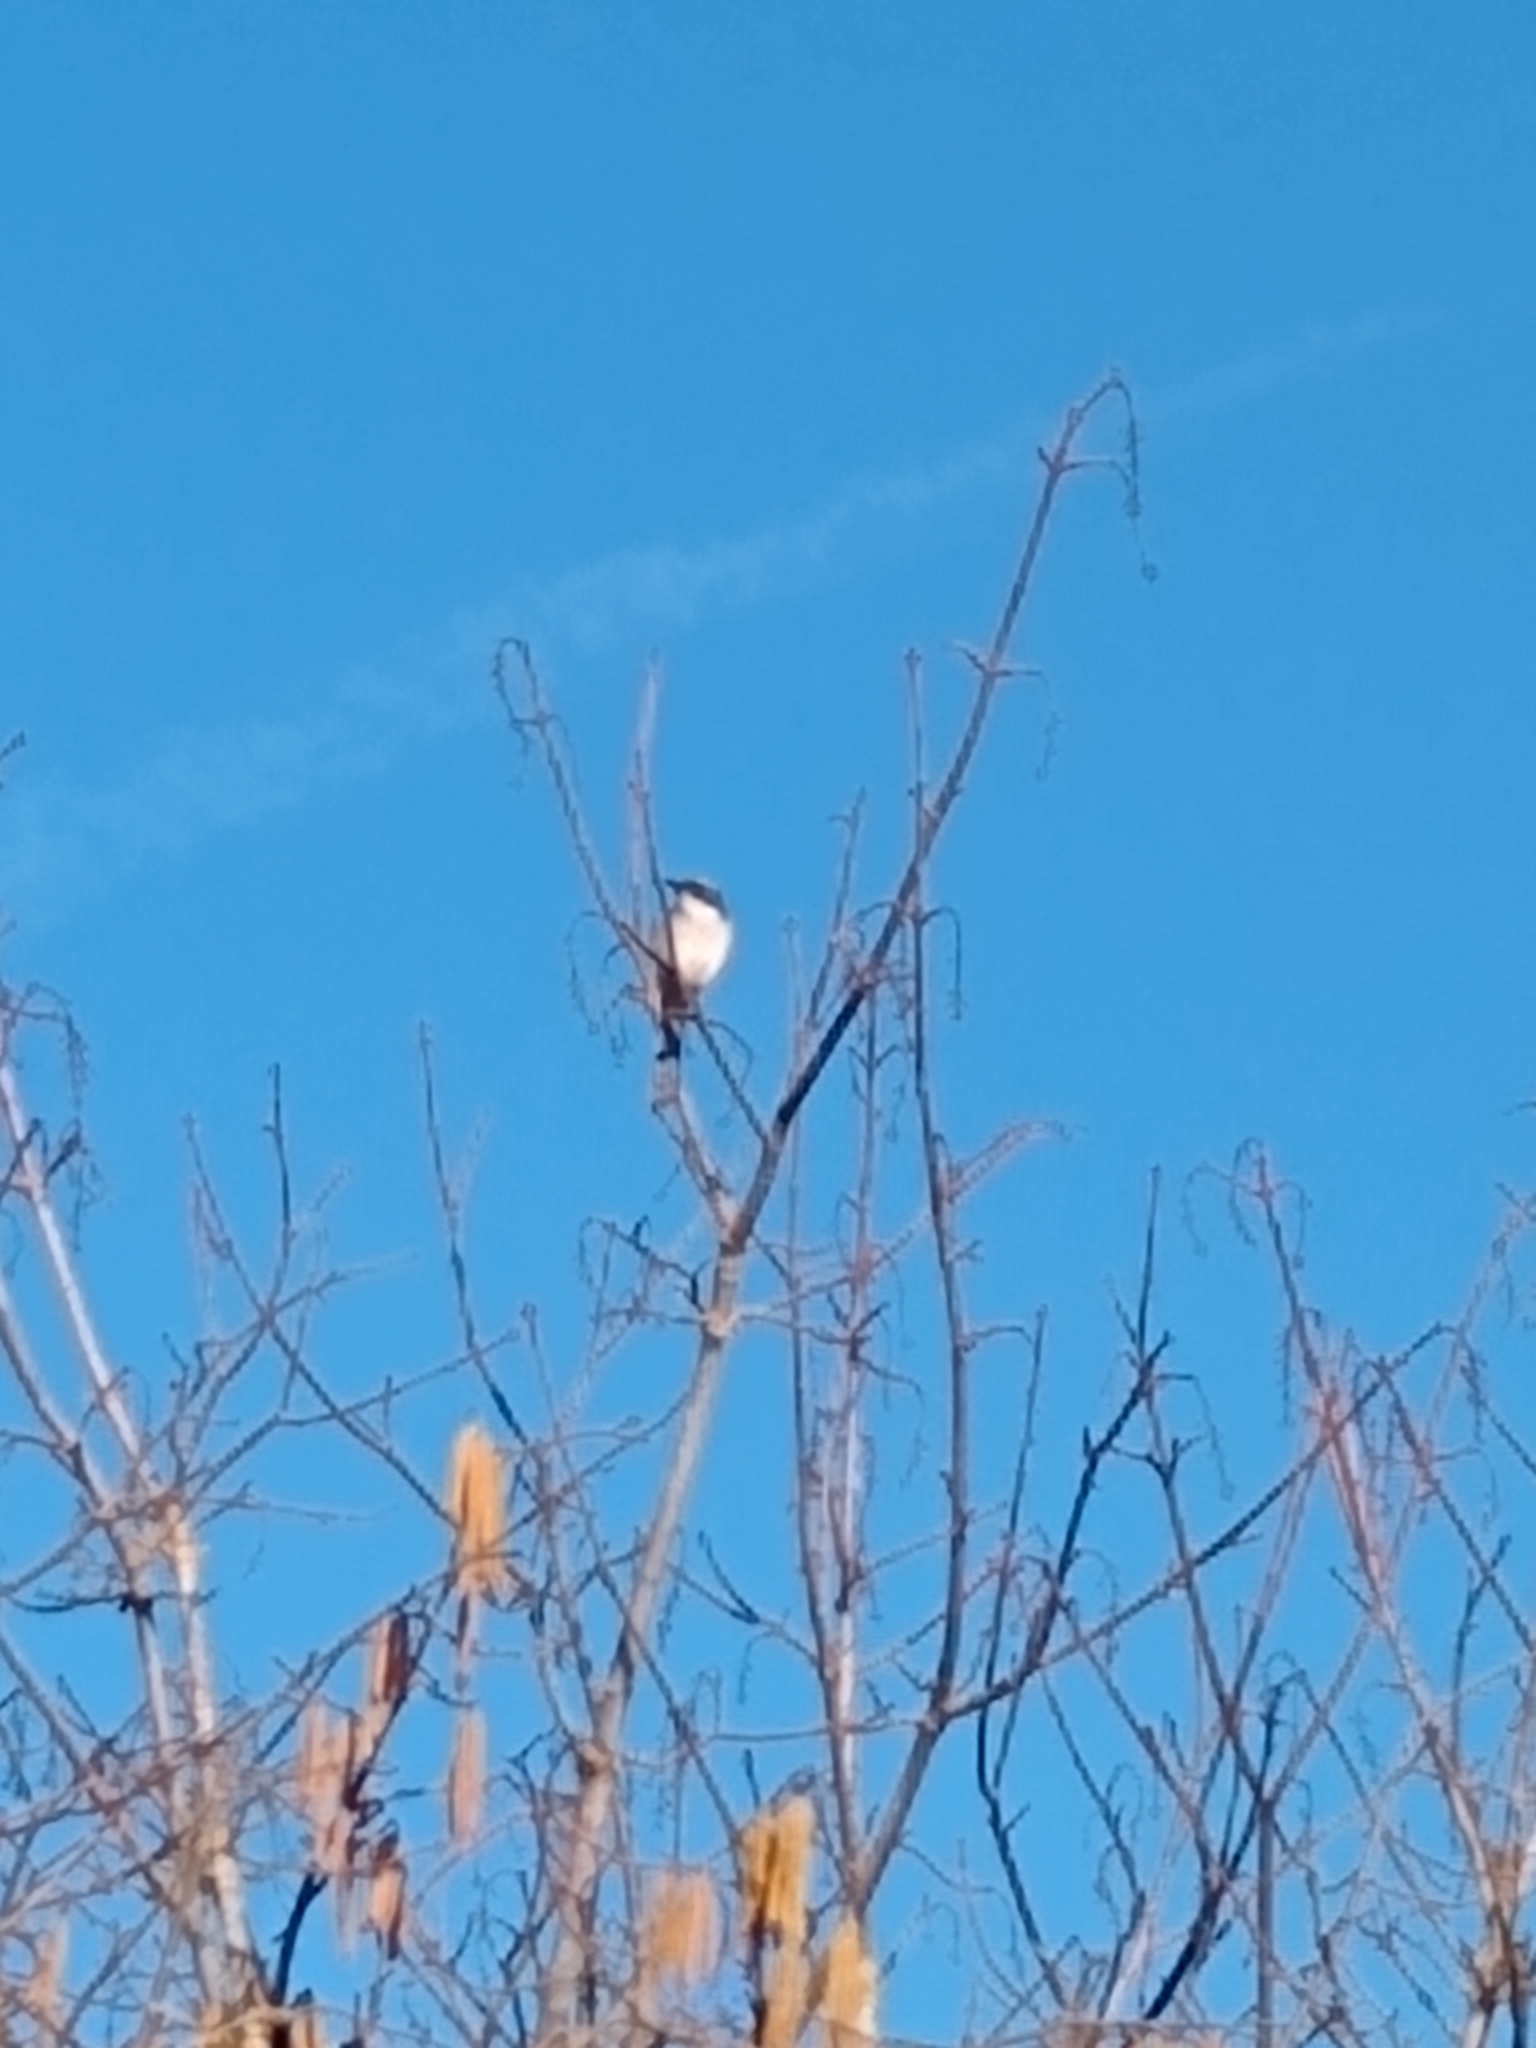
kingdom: Animalia
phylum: Chordata
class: Aves
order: Passeriformes
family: Corvidae
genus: Aphelocoma
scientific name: Aphelocoma californica
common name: California scrub-jay
